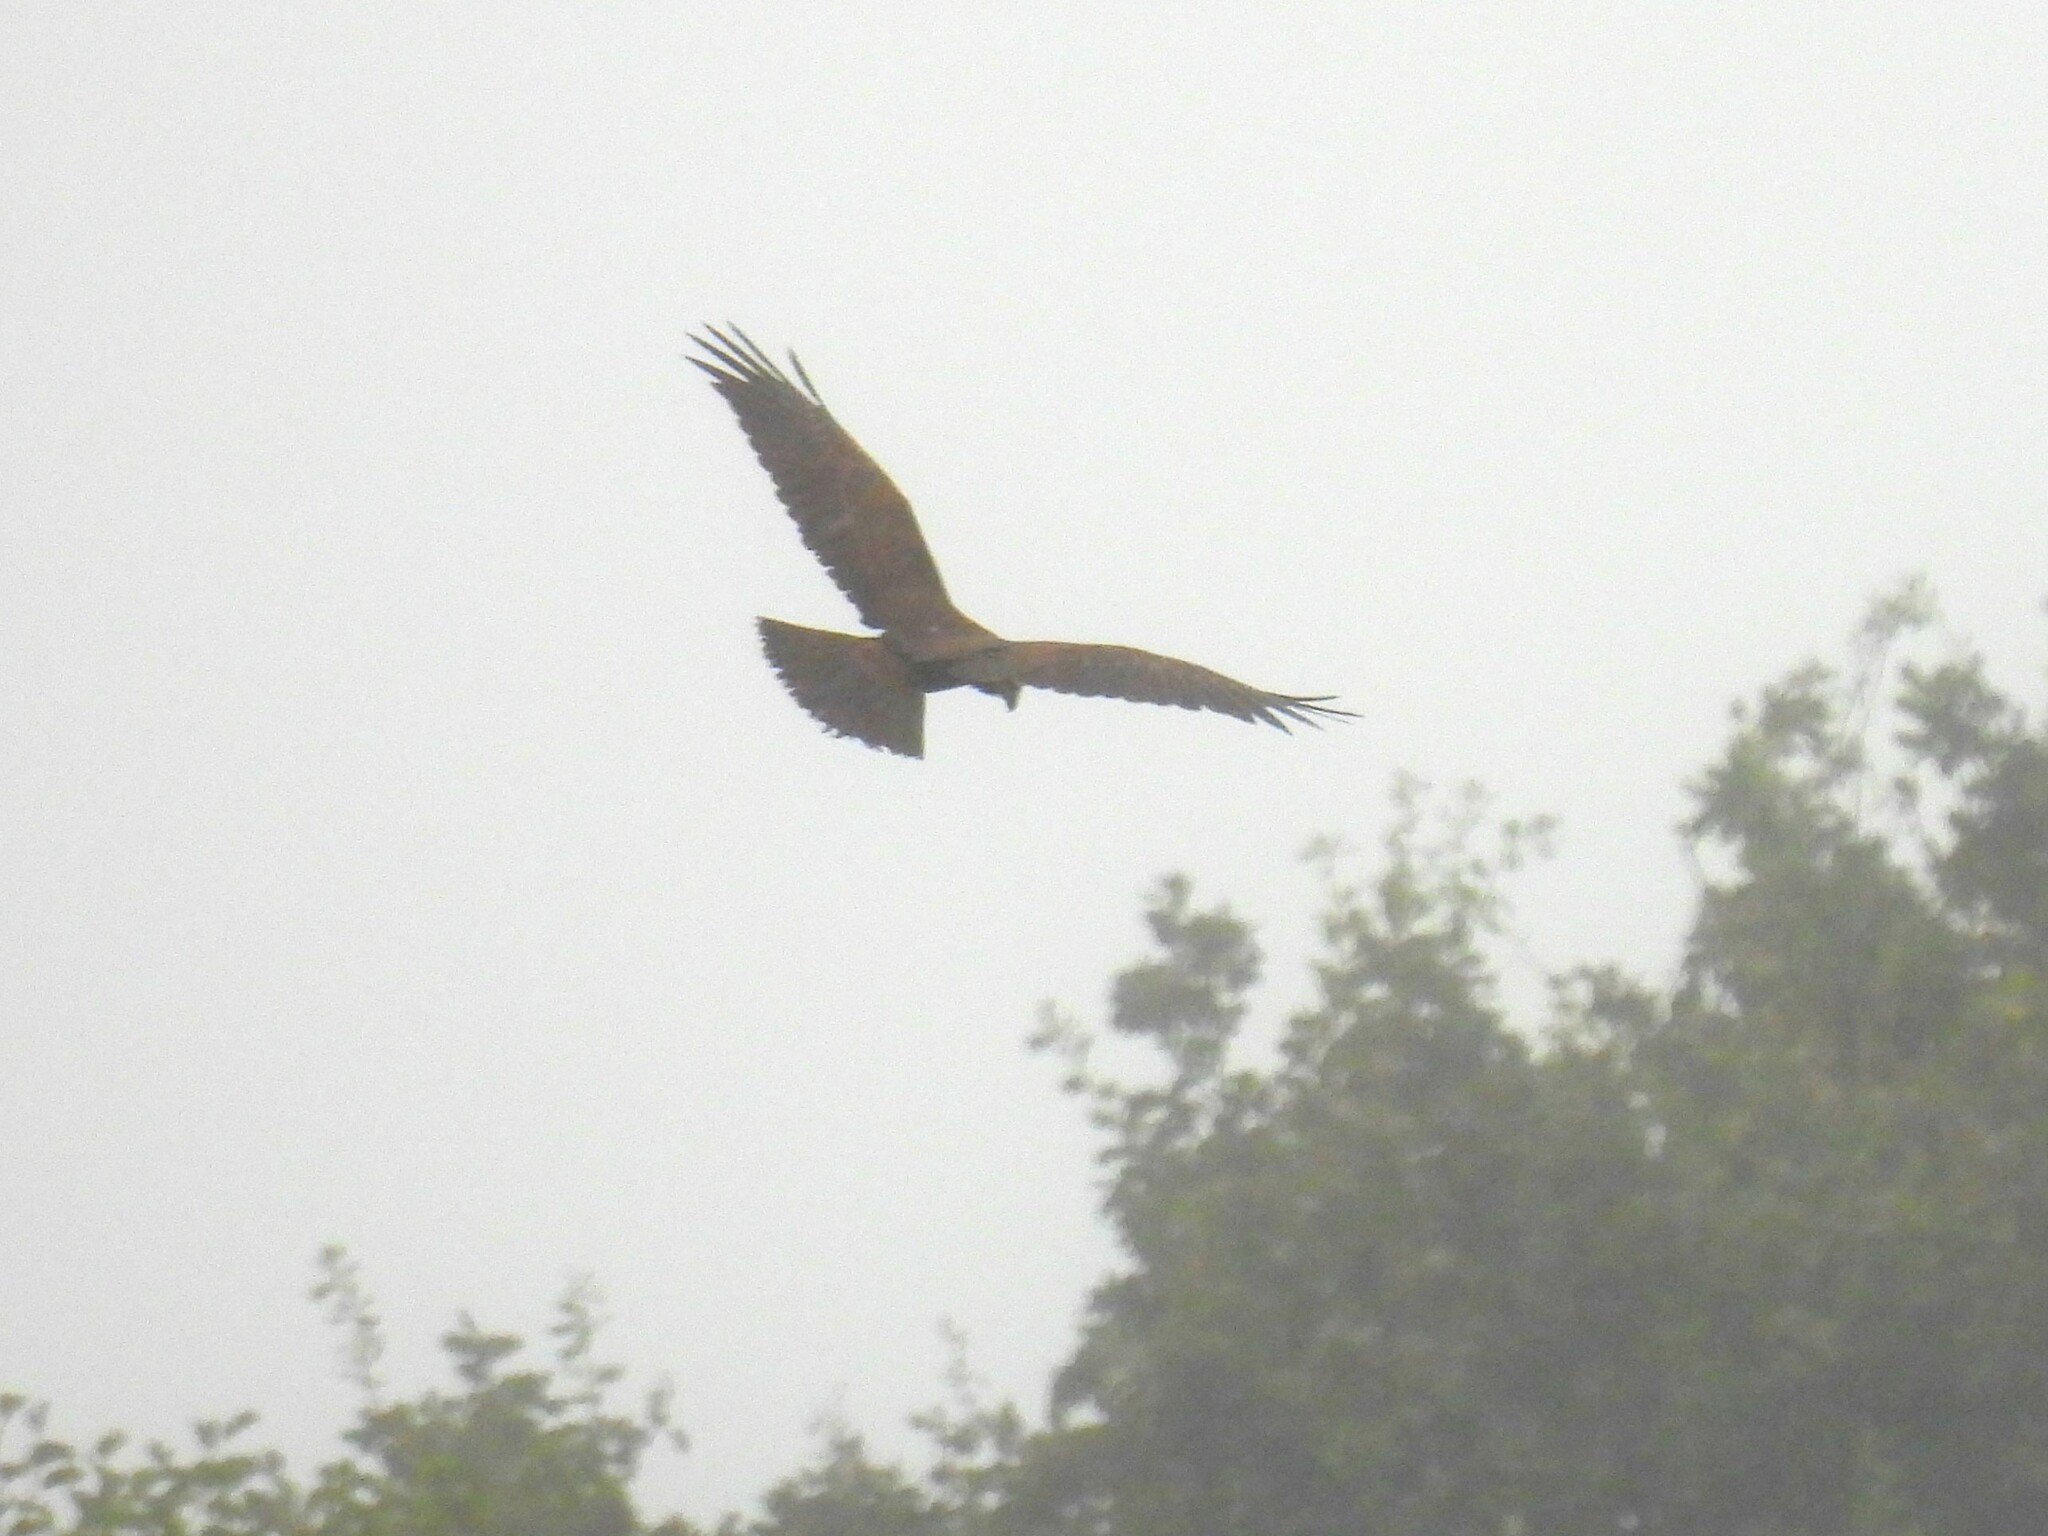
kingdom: Animalia
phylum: Chordata
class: Aves
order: Accipitriformes
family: Accipitridae
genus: Circus
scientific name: Circus aeruginosus
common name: Western marsh harrier
